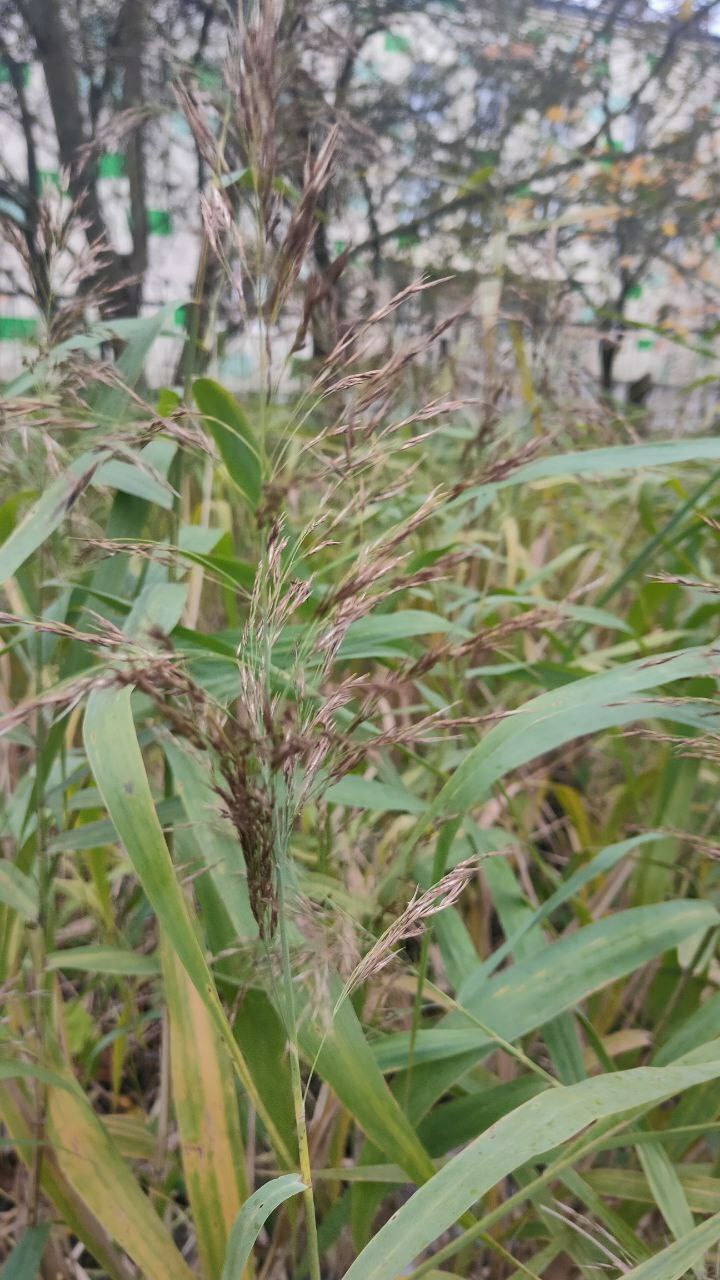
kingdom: Plantae
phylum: Tracheophyta
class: Liliopsida
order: Poales
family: Poaceae
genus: Phragmites
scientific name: Phragmites australis
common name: Common reed
